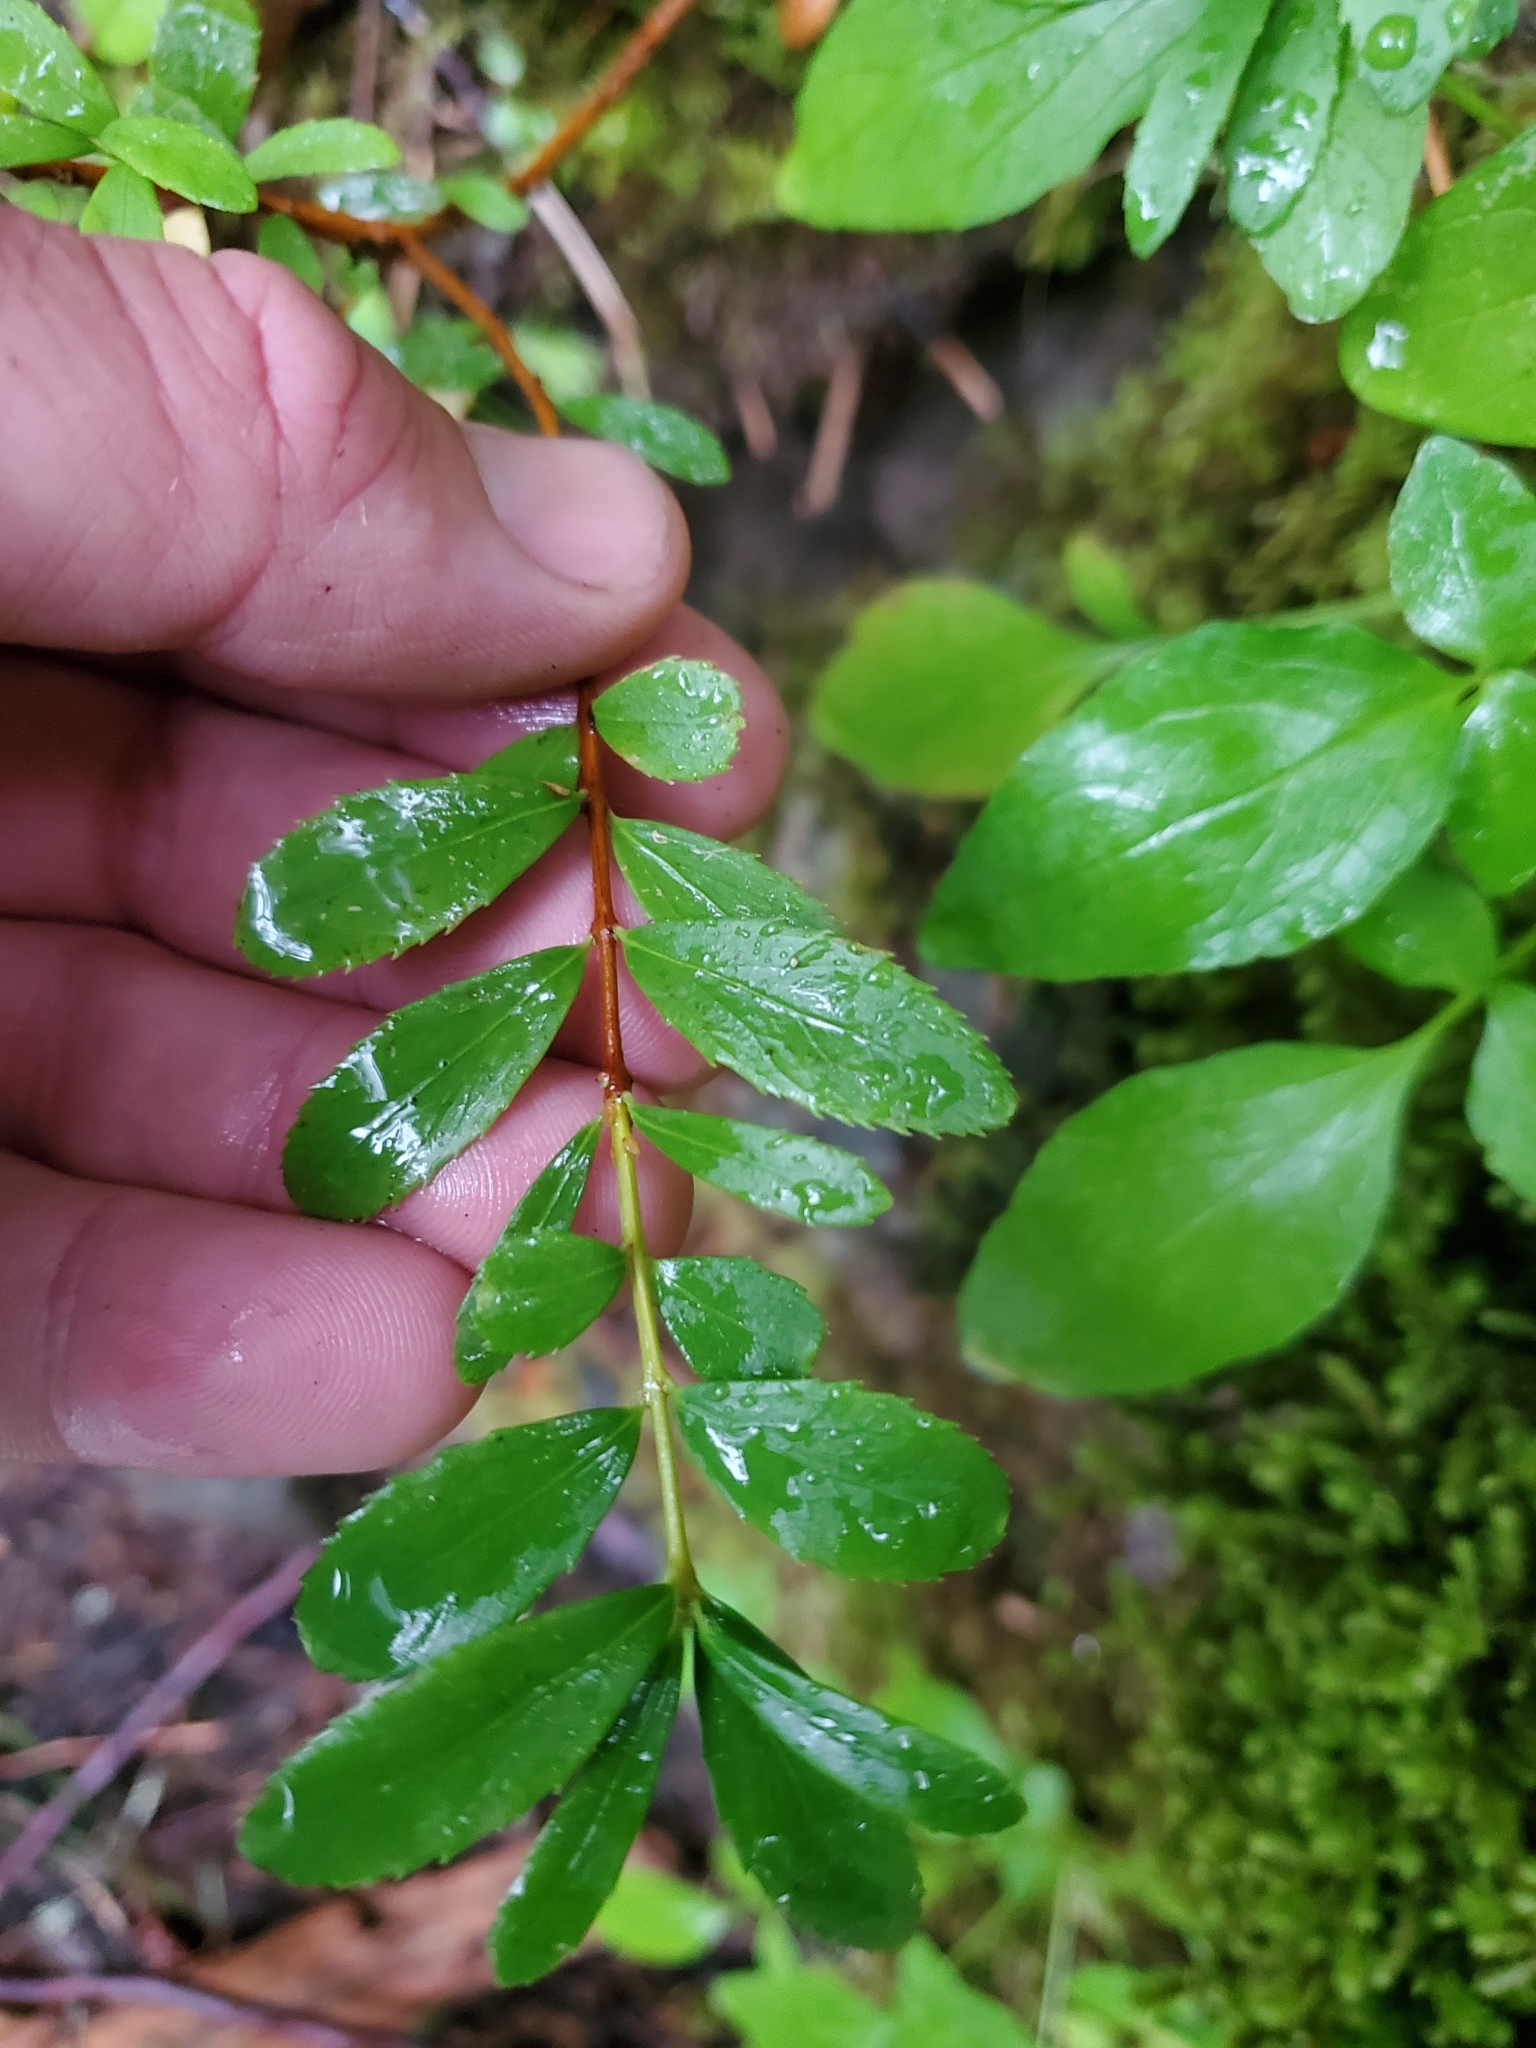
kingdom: Plantae
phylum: Tracheophyta
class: Magnoliopsida
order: Celastrales
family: Celastraceae
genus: Paxistima
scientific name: Paxistima myrsinites
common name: Mountain-lover
